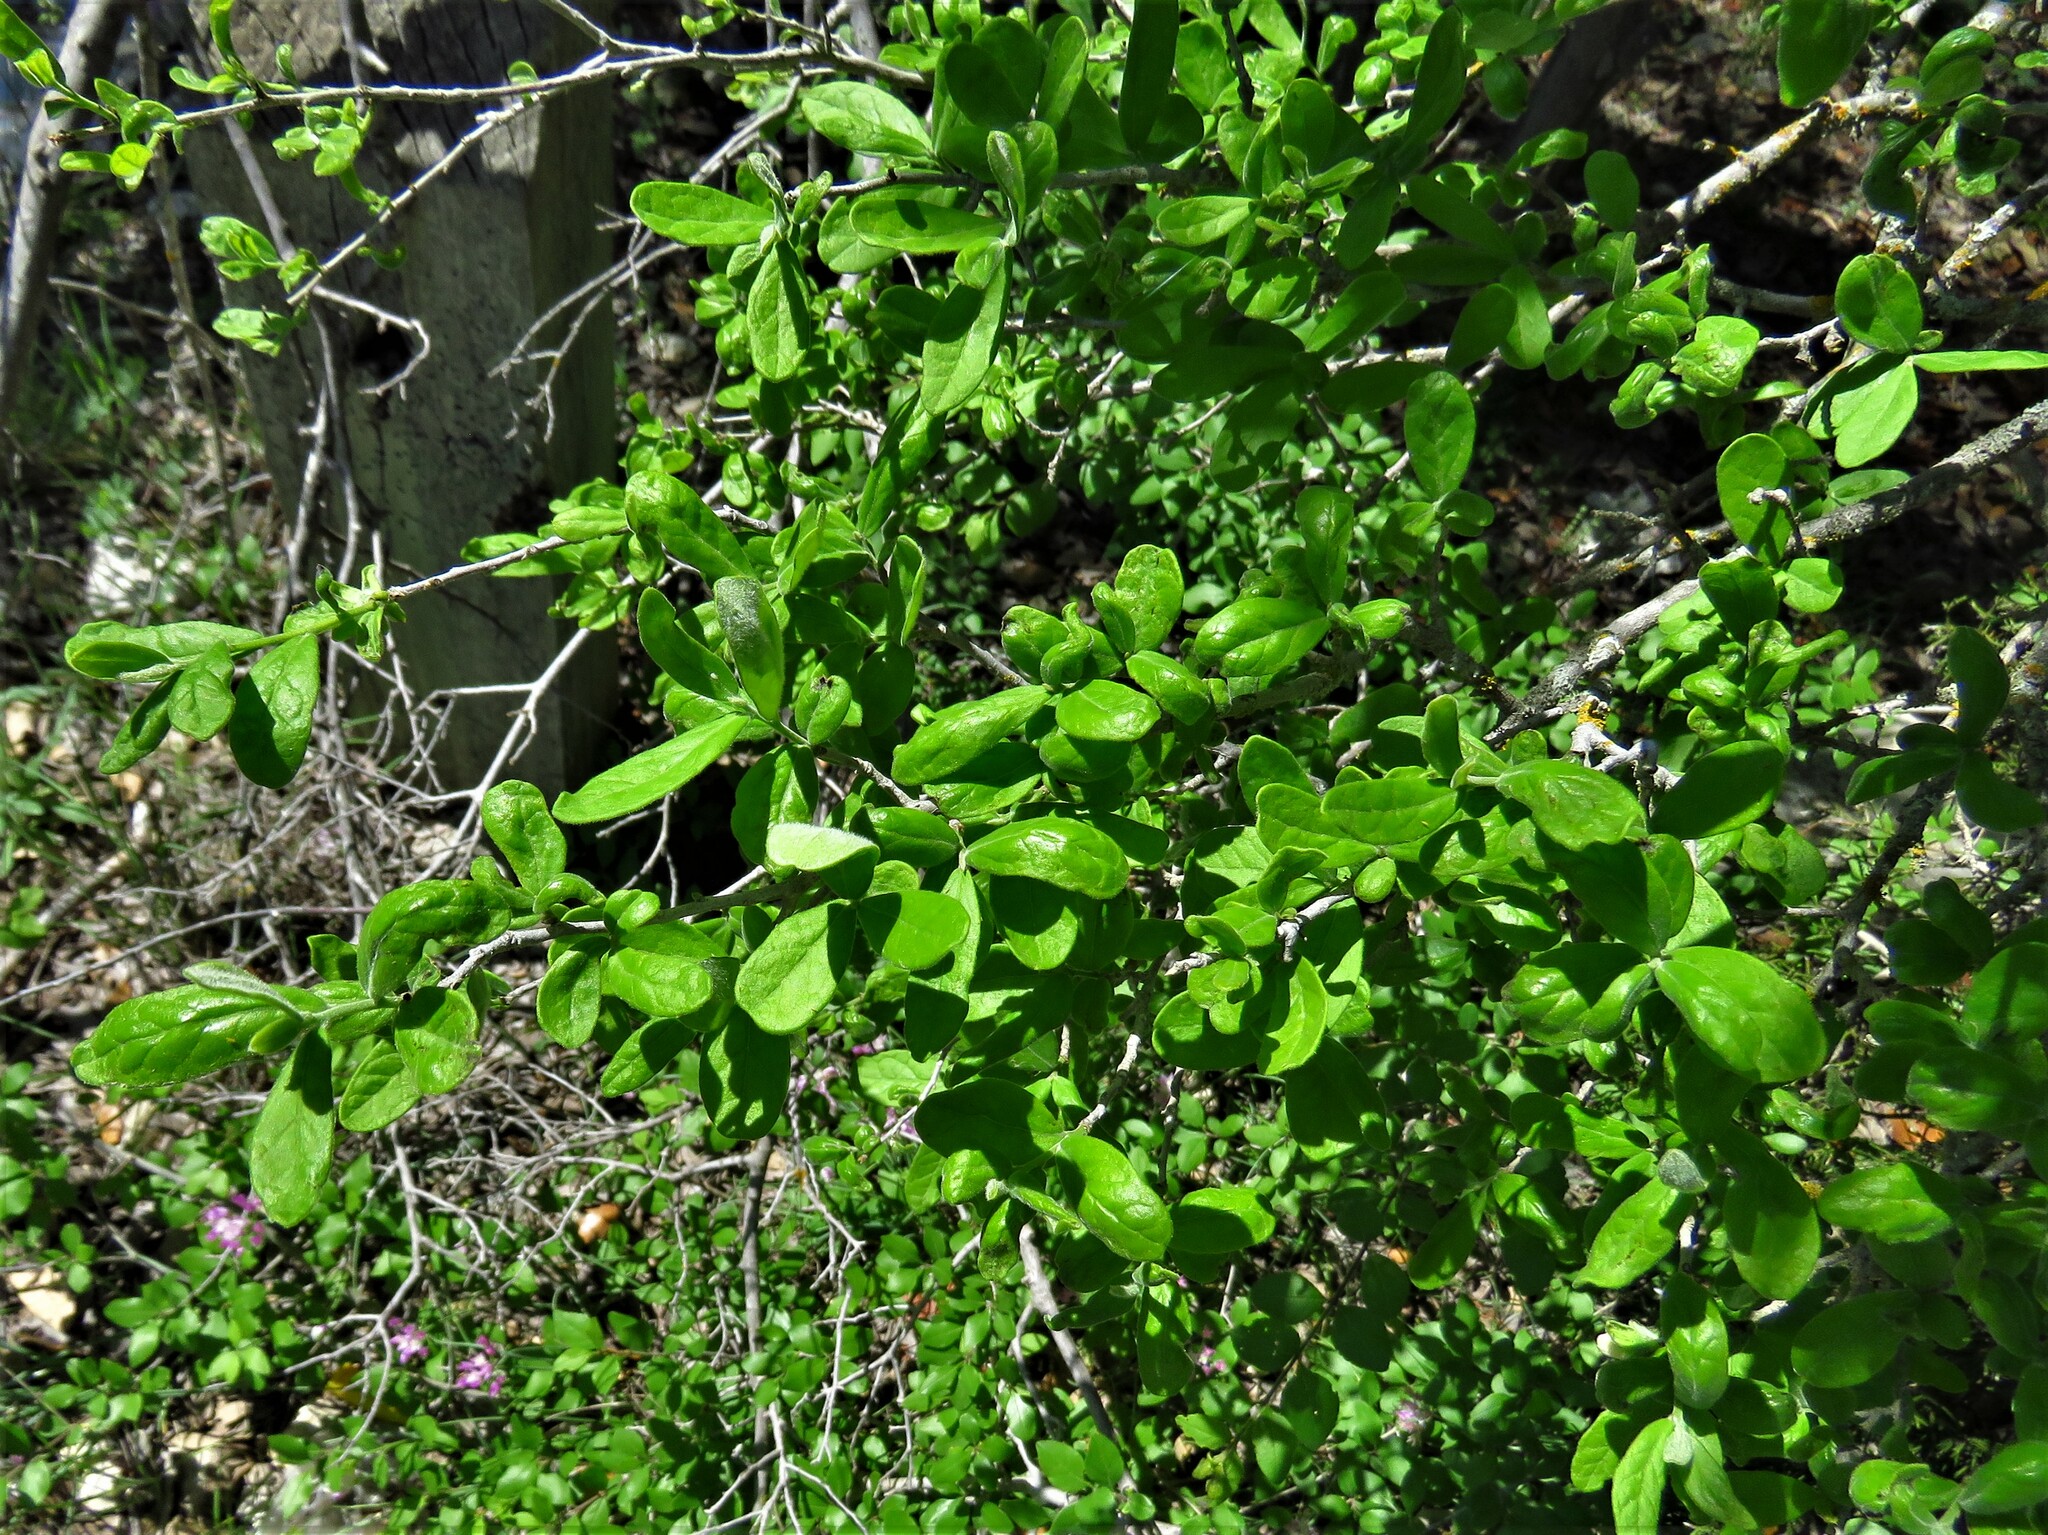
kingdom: Plantae
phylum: Tracheophyta
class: Magnoliopsida
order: Ericales
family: Ebenaceae
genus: Diospyros
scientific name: Diospyros texana
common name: Texas persimmon
